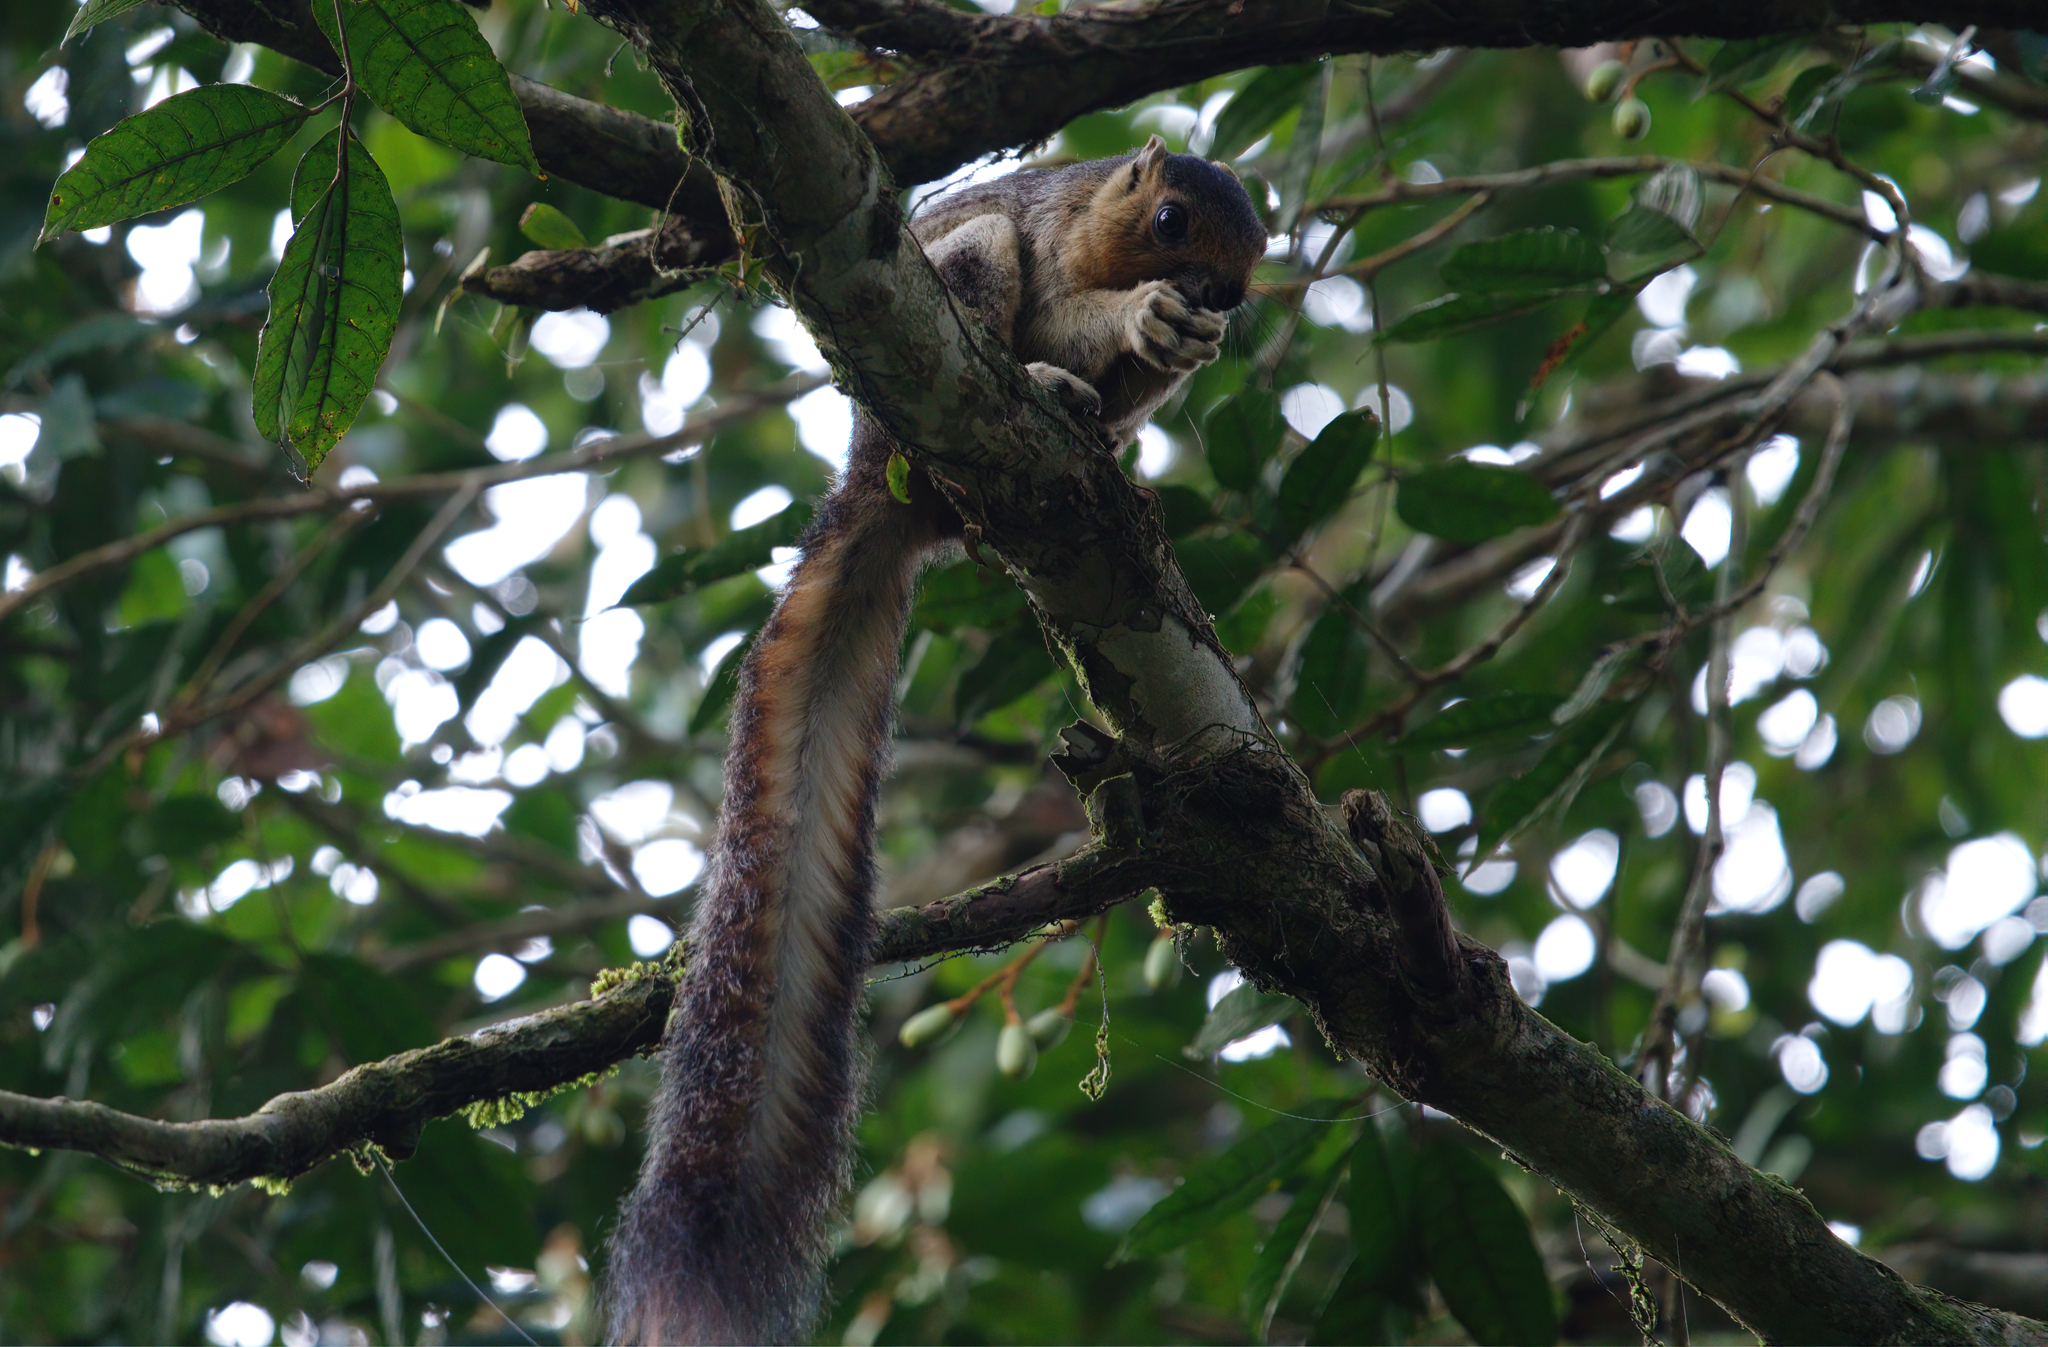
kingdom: Animalia
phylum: Chordata
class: Mammalia
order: Rodentia
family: Sciuridae
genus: Ratufa
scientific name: Ratufa affinis
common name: Pale giant squirrel
